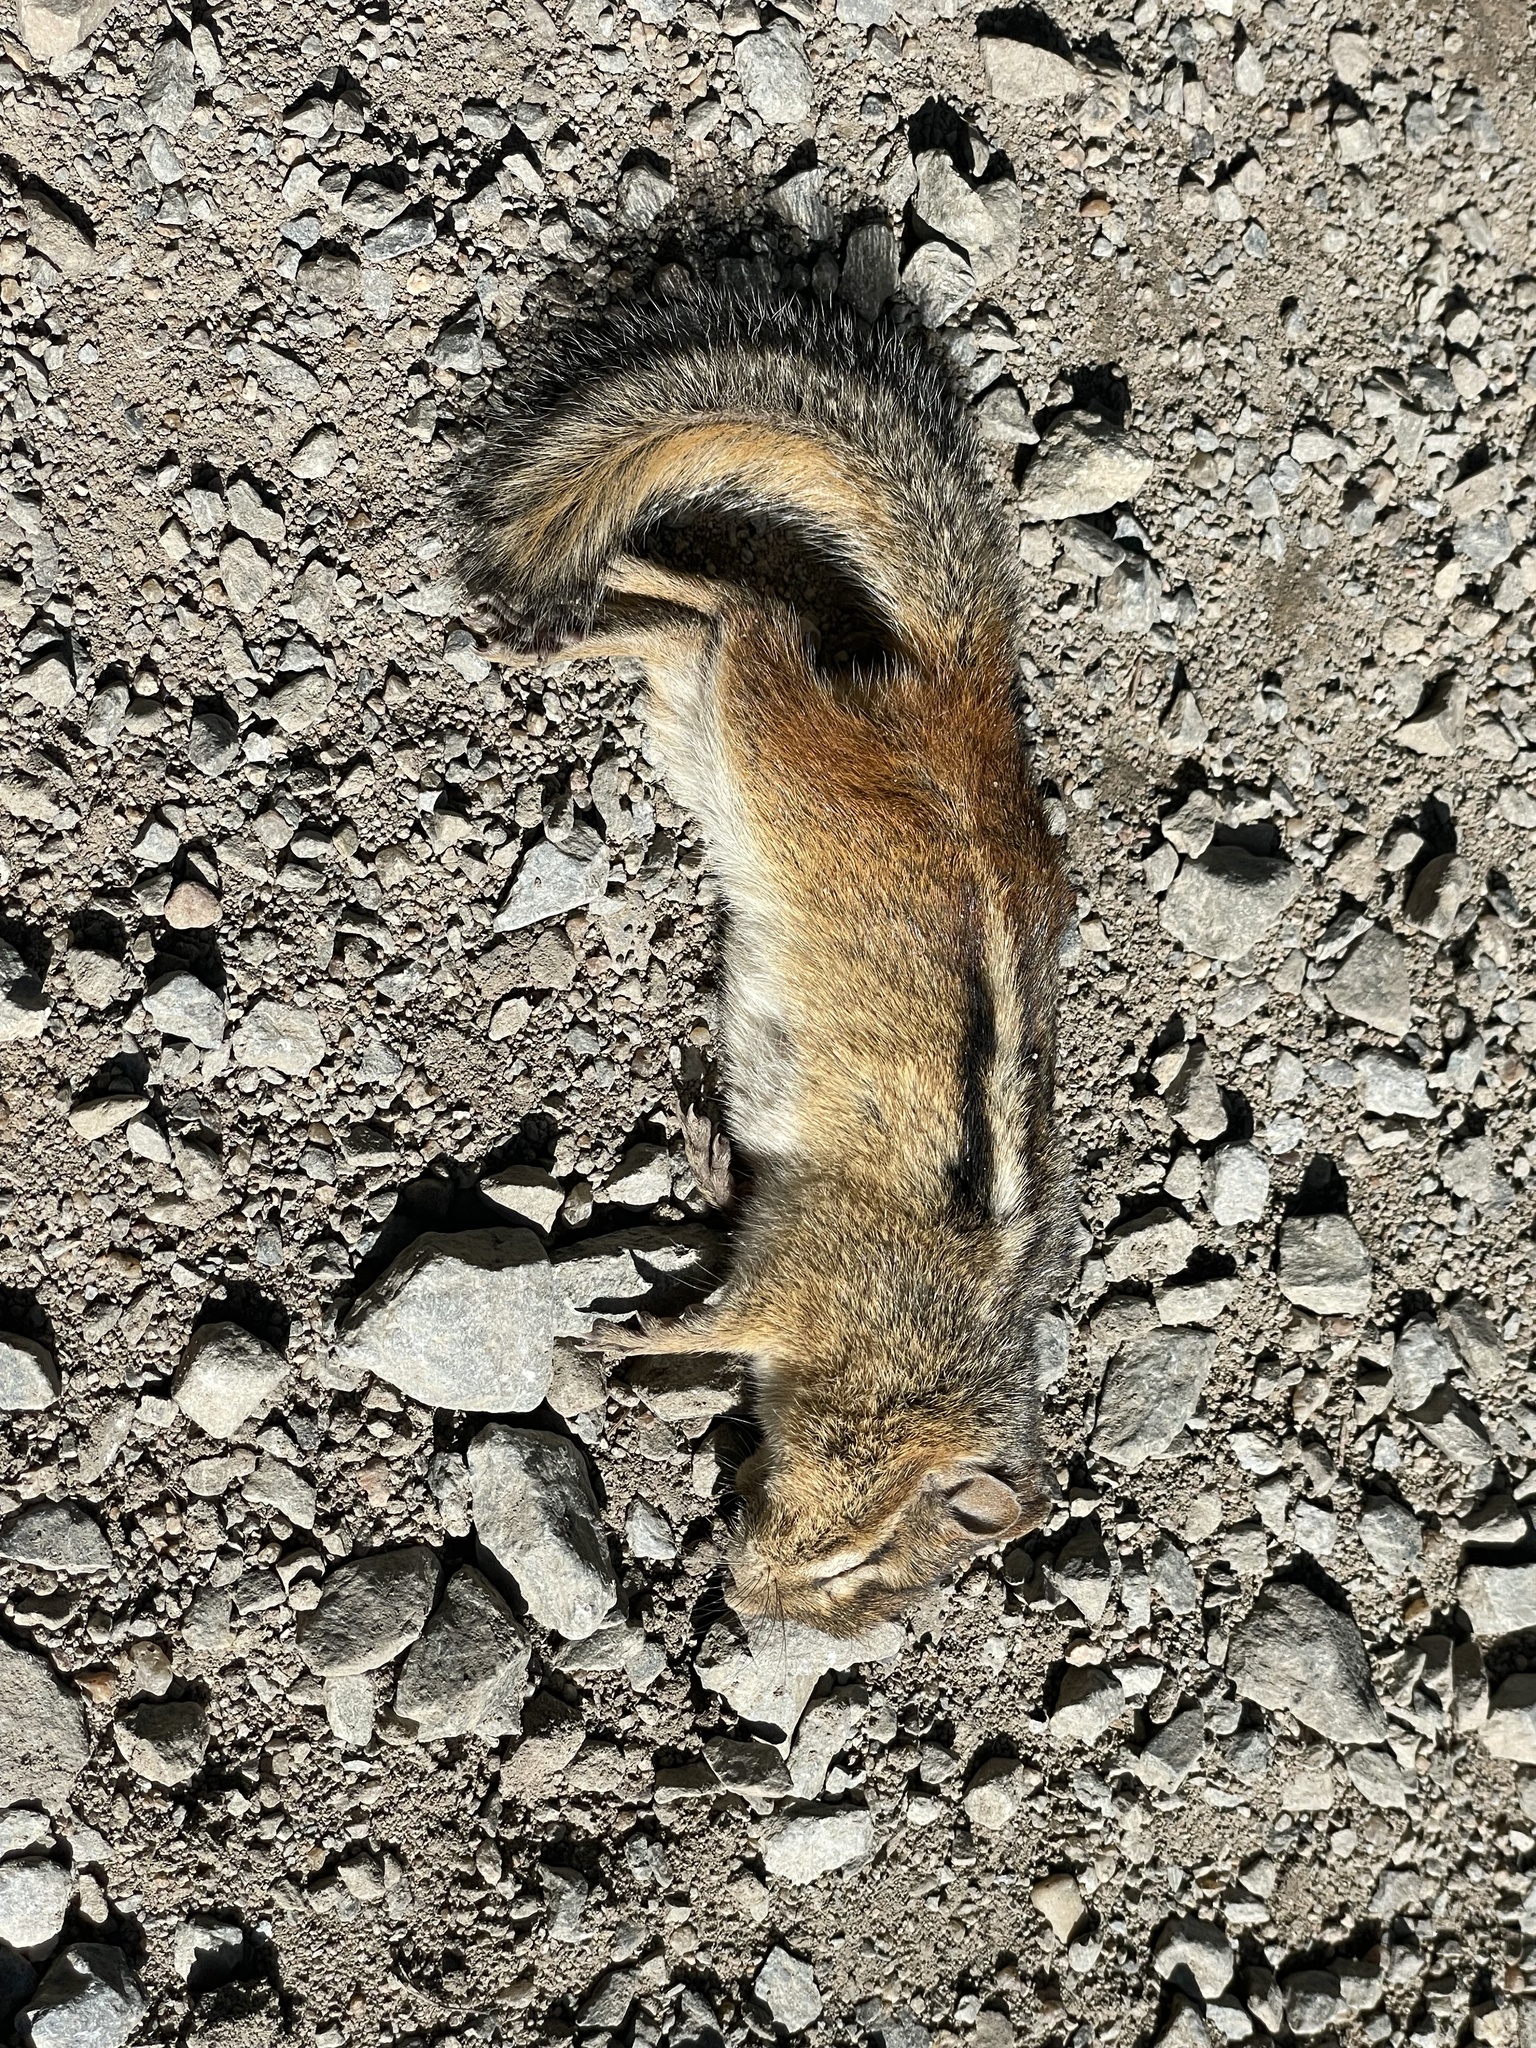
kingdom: Animalia
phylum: Chordata
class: Mammalia
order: Rodentia
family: Sciuridae
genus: Tamias
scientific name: Tamias striatus
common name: Eastern chipmunk
